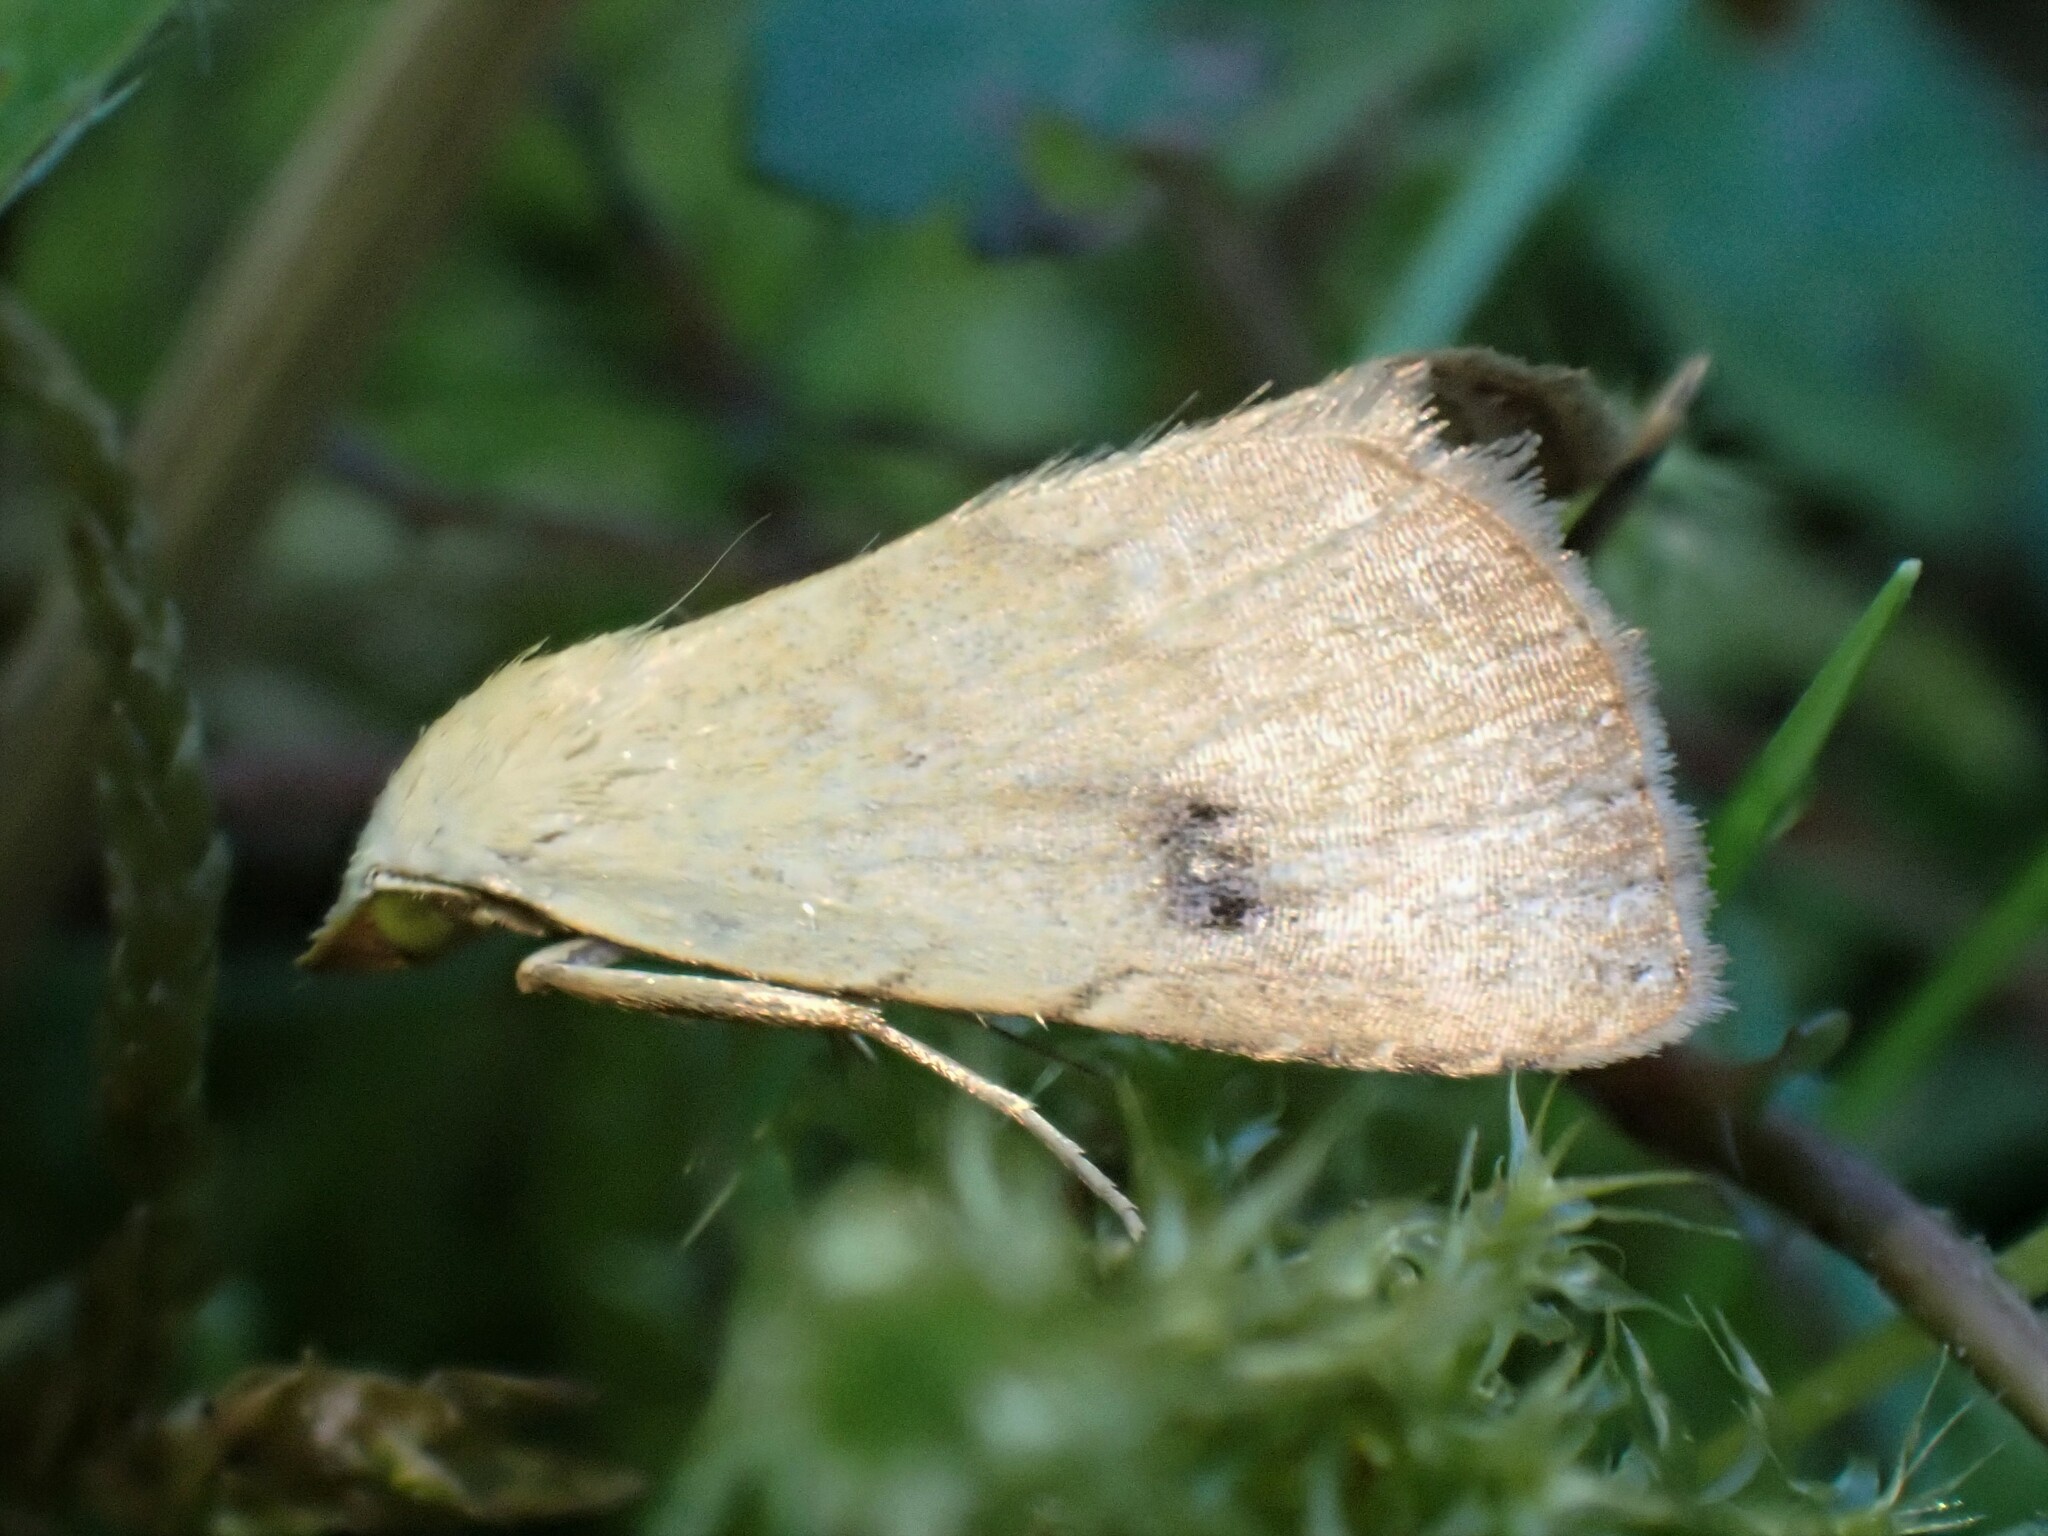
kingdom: Animalia
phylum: Arthropoda
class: Insecta
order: Lepidoptera
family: Erebidae
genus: Rivula
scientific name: Rivula sericealis
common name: Straw dot
